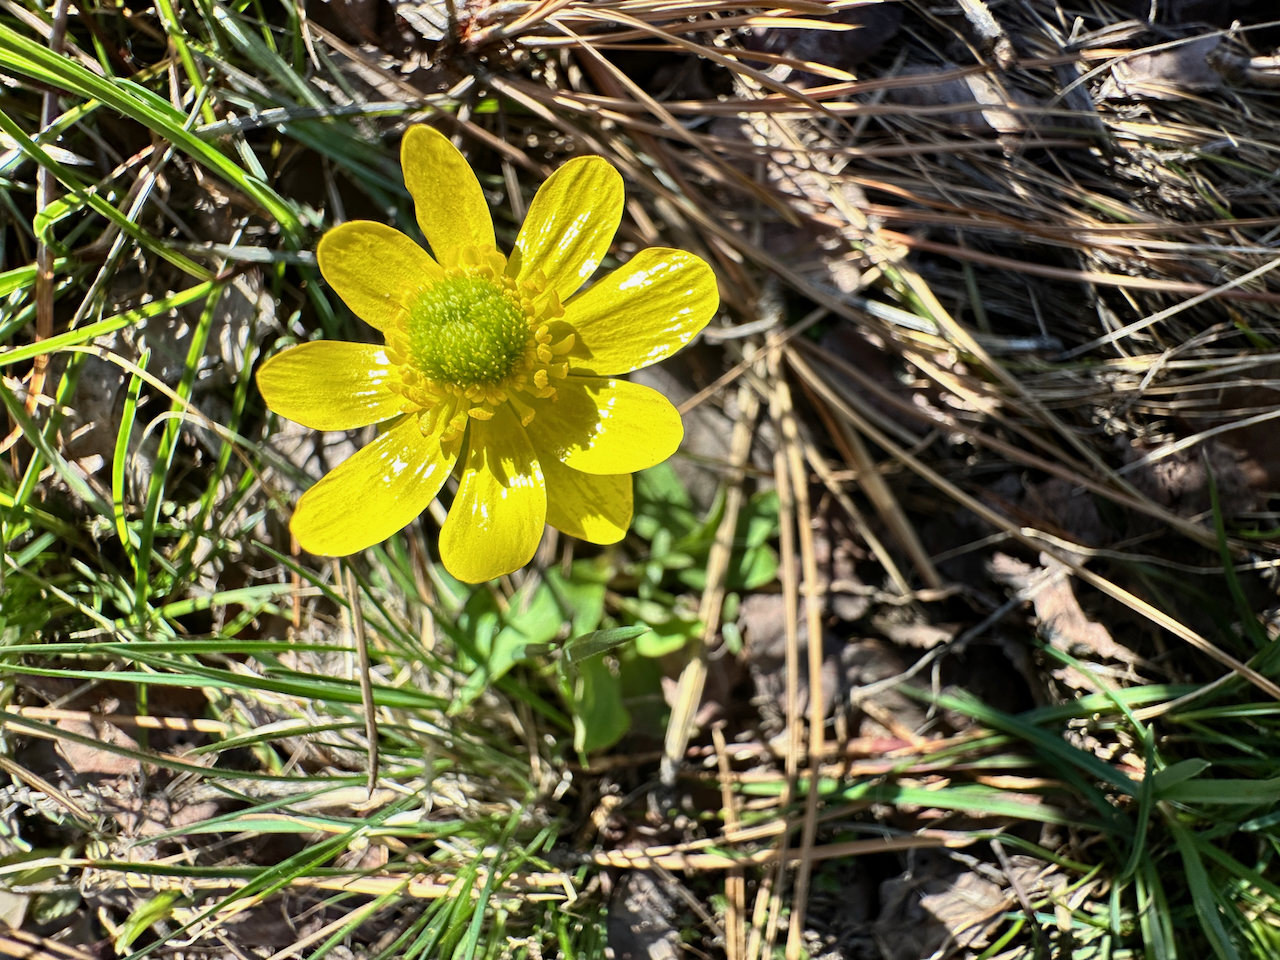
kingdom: Plantae
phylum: Tracheophyta
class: Magnoliopsida
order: Ranunculales
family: Ranunculaceae
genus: Ranunculus
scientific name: Ranunculus glaberrimus
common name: Sagebrush buttercup
